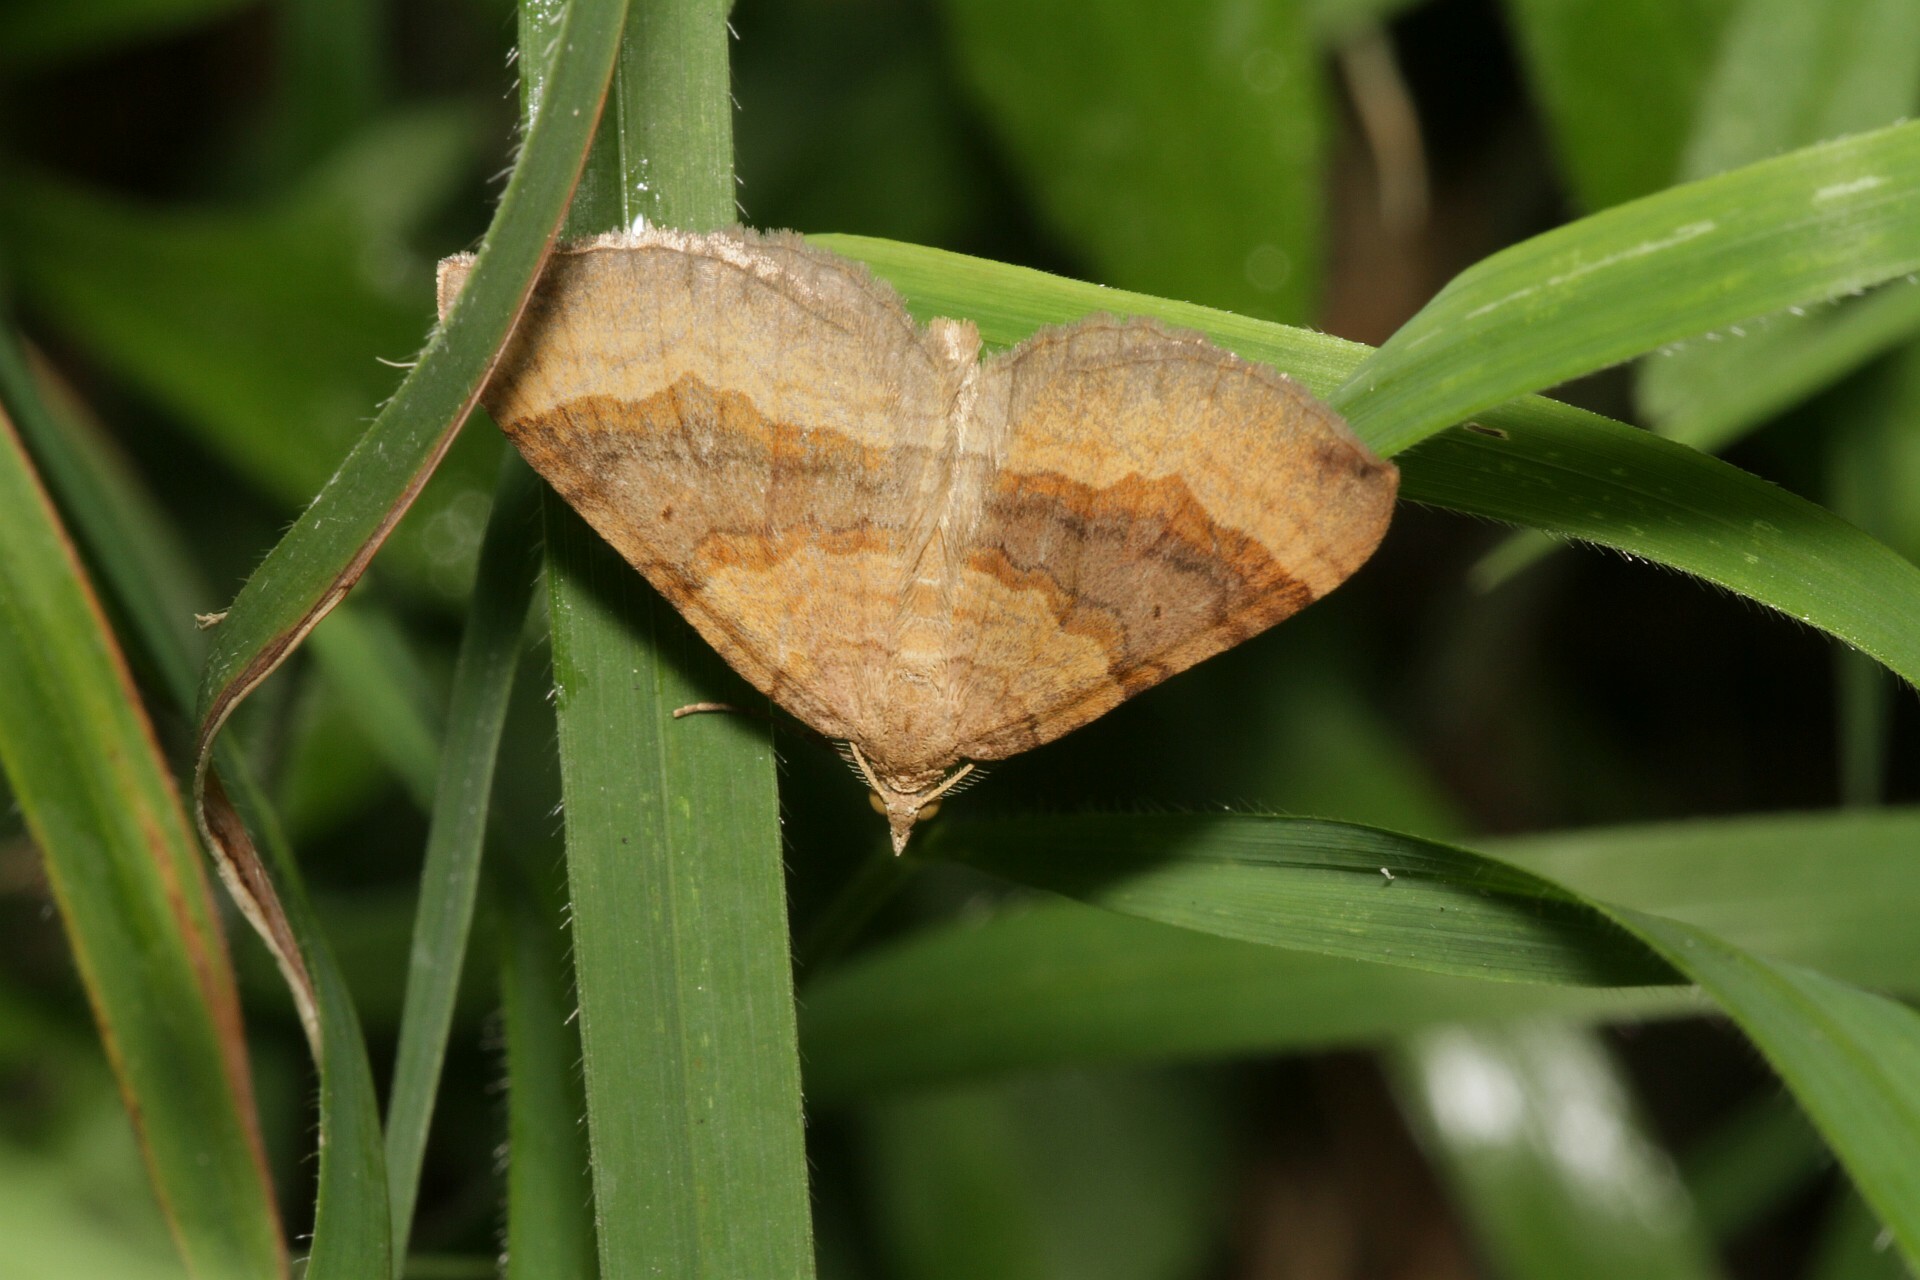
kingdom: Animalia
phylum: Arthropoda
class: Insecta
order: Lepidoptera
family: Geometridae
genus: Scotopteryx
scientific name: Scotopteryx chenopodiata
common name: Shaded broad-bar
